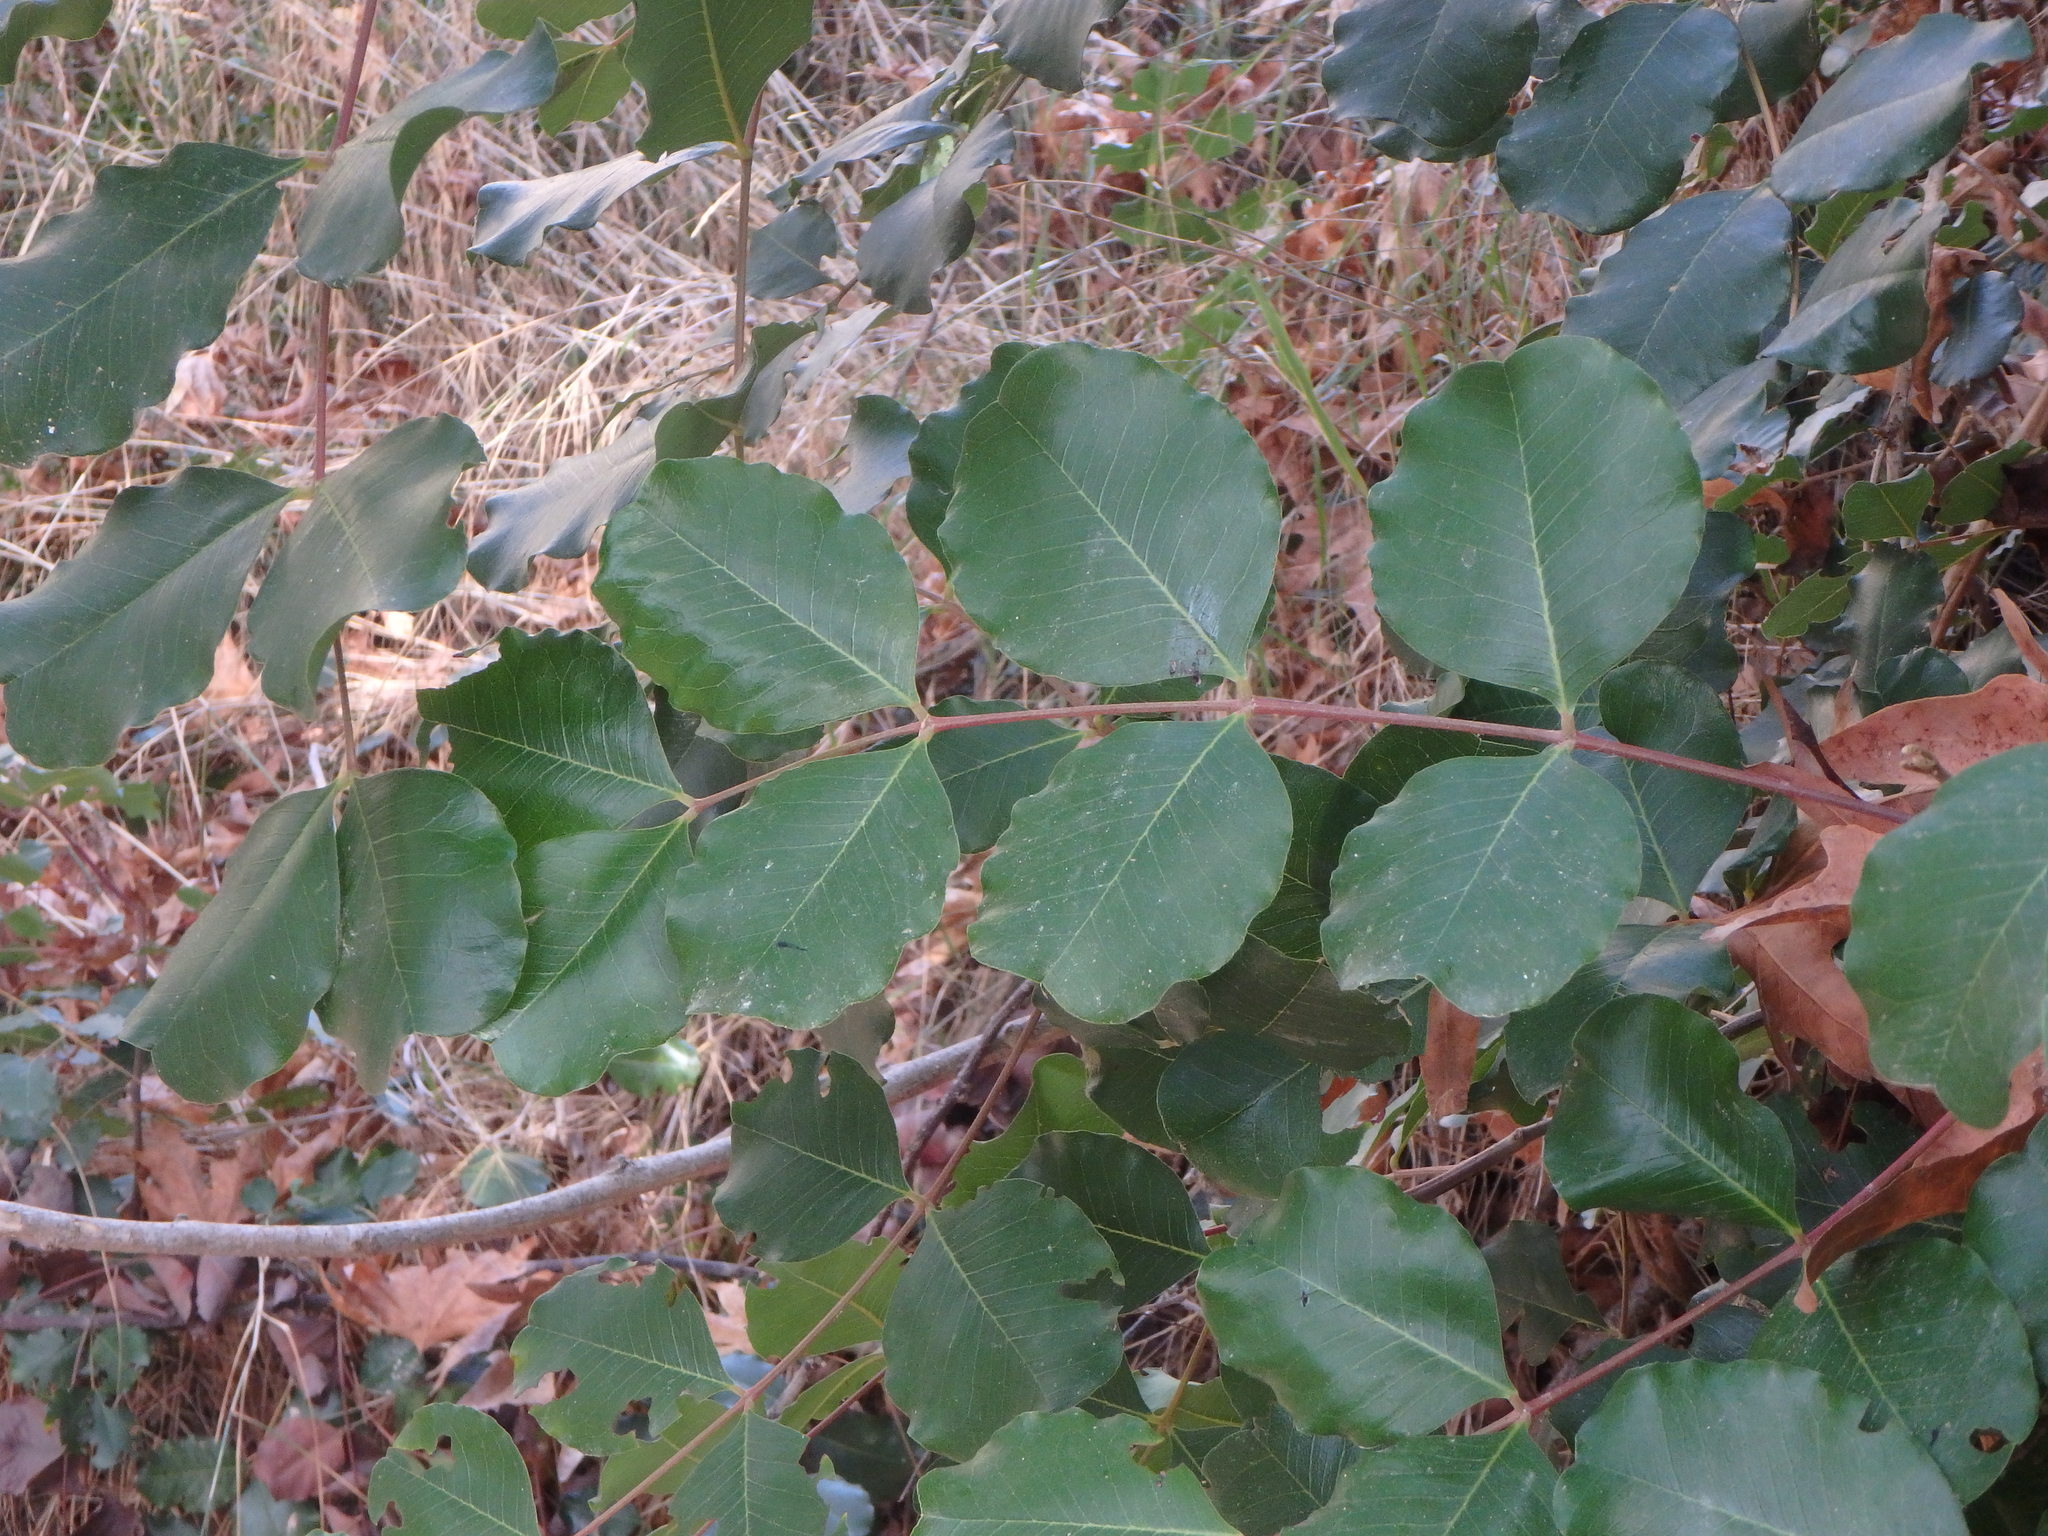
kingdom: Plantae
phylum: Tracheophyta
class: Magnoliopsida
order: Fabales
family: Fabaceae
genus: Ceratonia
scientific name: Ceratonia siliqua
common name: Carob
